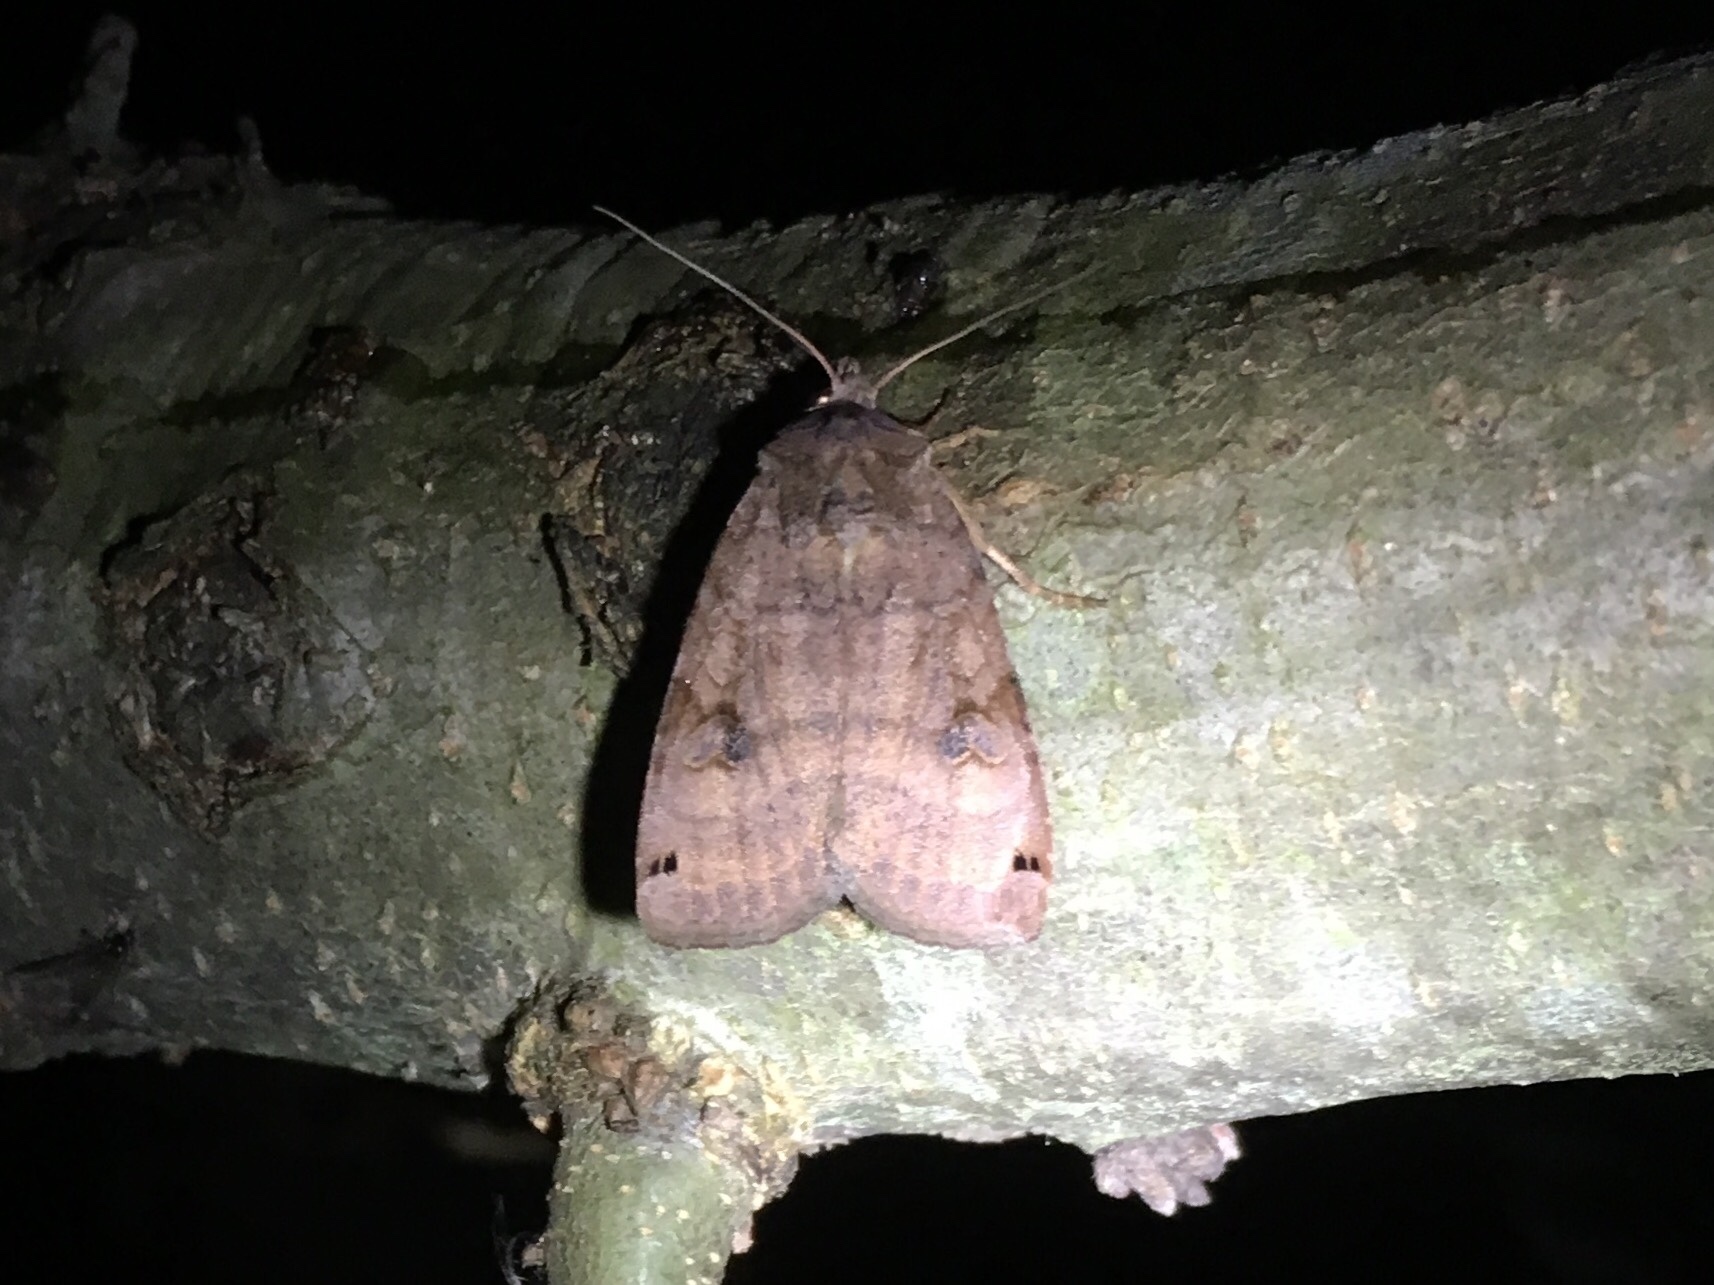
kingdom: Animalia
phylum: Arthropoda
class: Insecta
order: Lepidoptera
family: Noctuidae
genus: Xestia
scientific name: Xestia smithii
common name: Smith's dart
